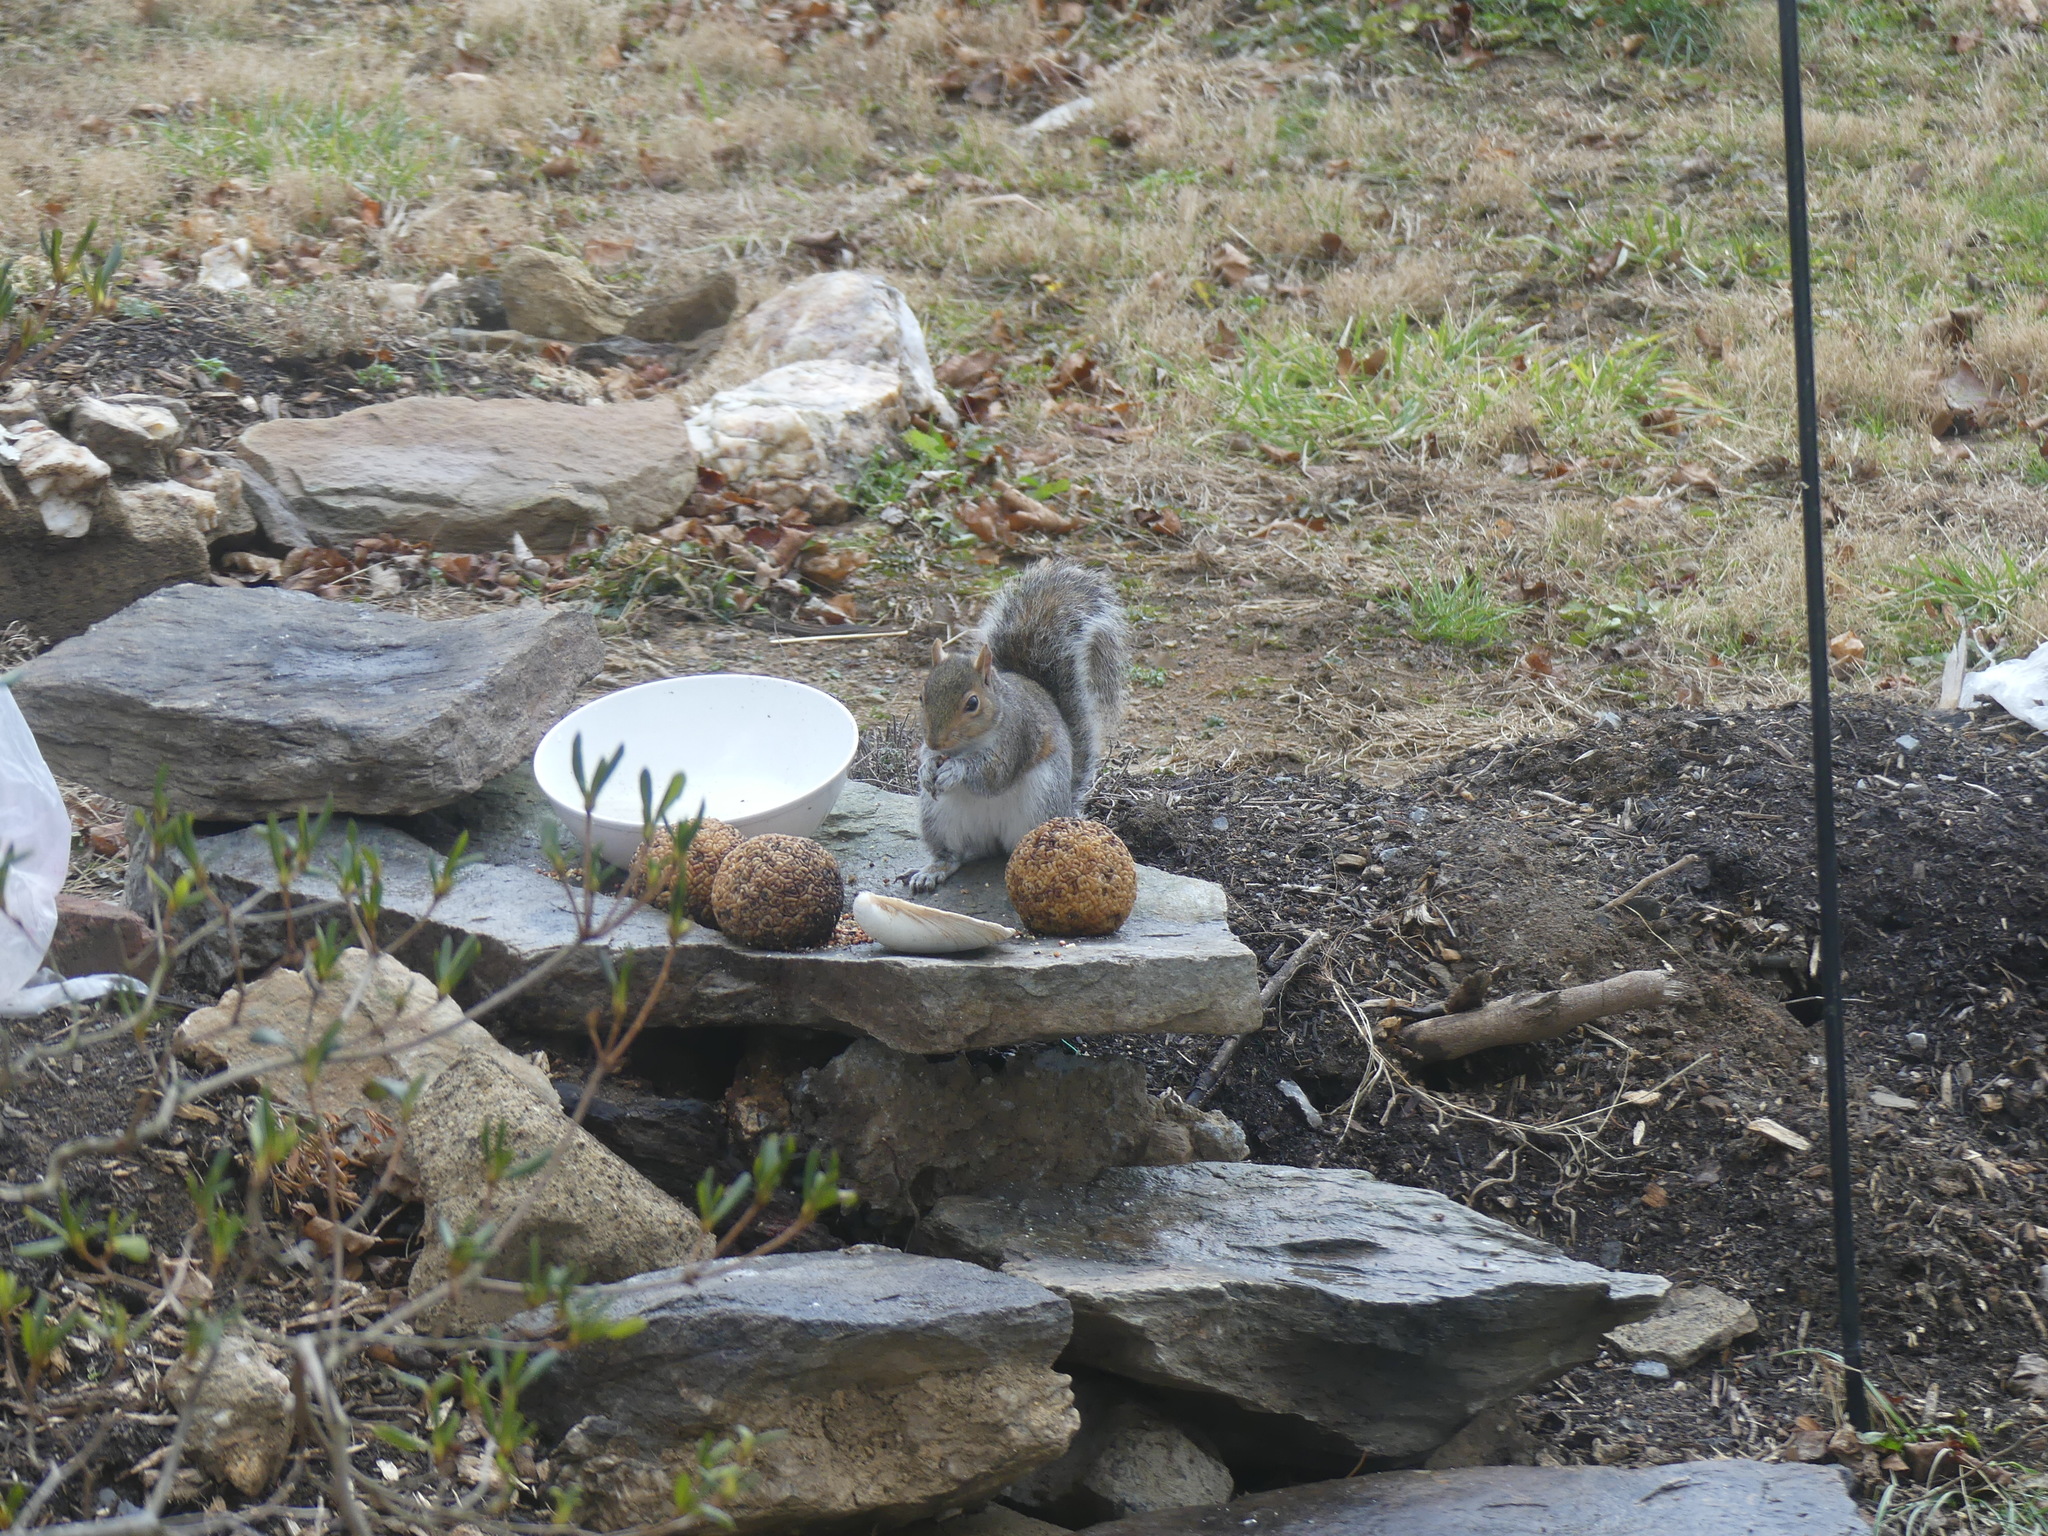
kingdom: Animalia
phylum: Chordata
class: Mammalia
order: Rodentia
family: Sciuridae
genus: Sciurus
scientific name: Sciurus carolinensis
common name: Eastern gray squirrel
